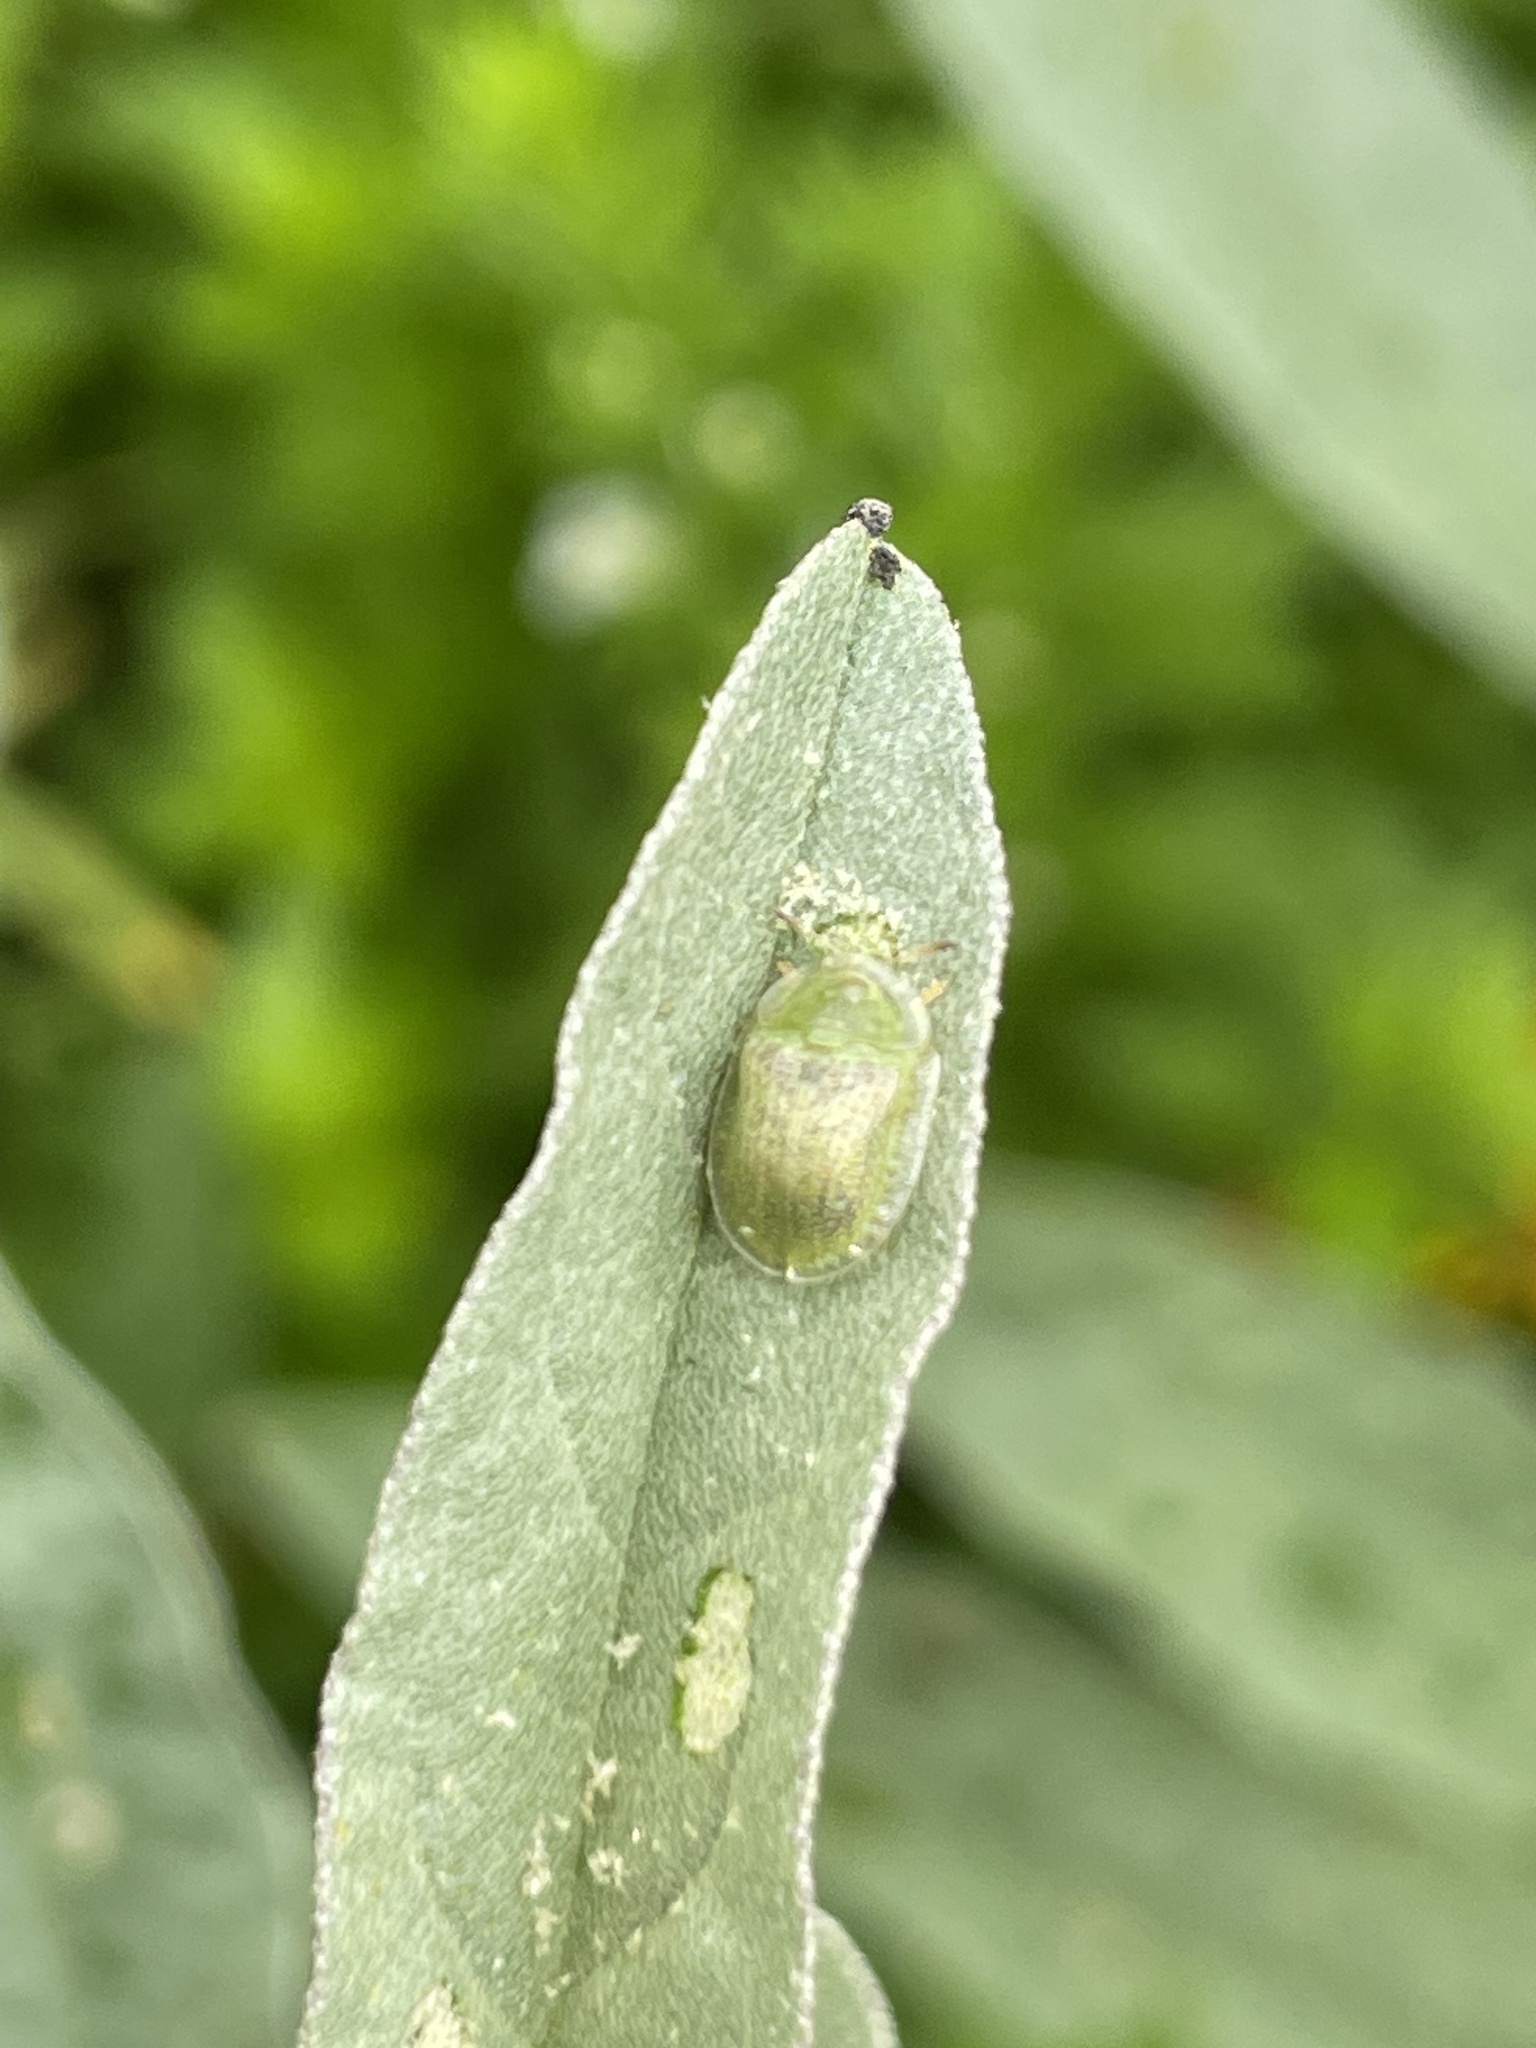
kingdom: Animalia
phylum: Arthropoda
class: Insecta
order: Coleoptera
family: Chrysomelidae
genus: Gratiana
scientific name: Gratiana pallidula
